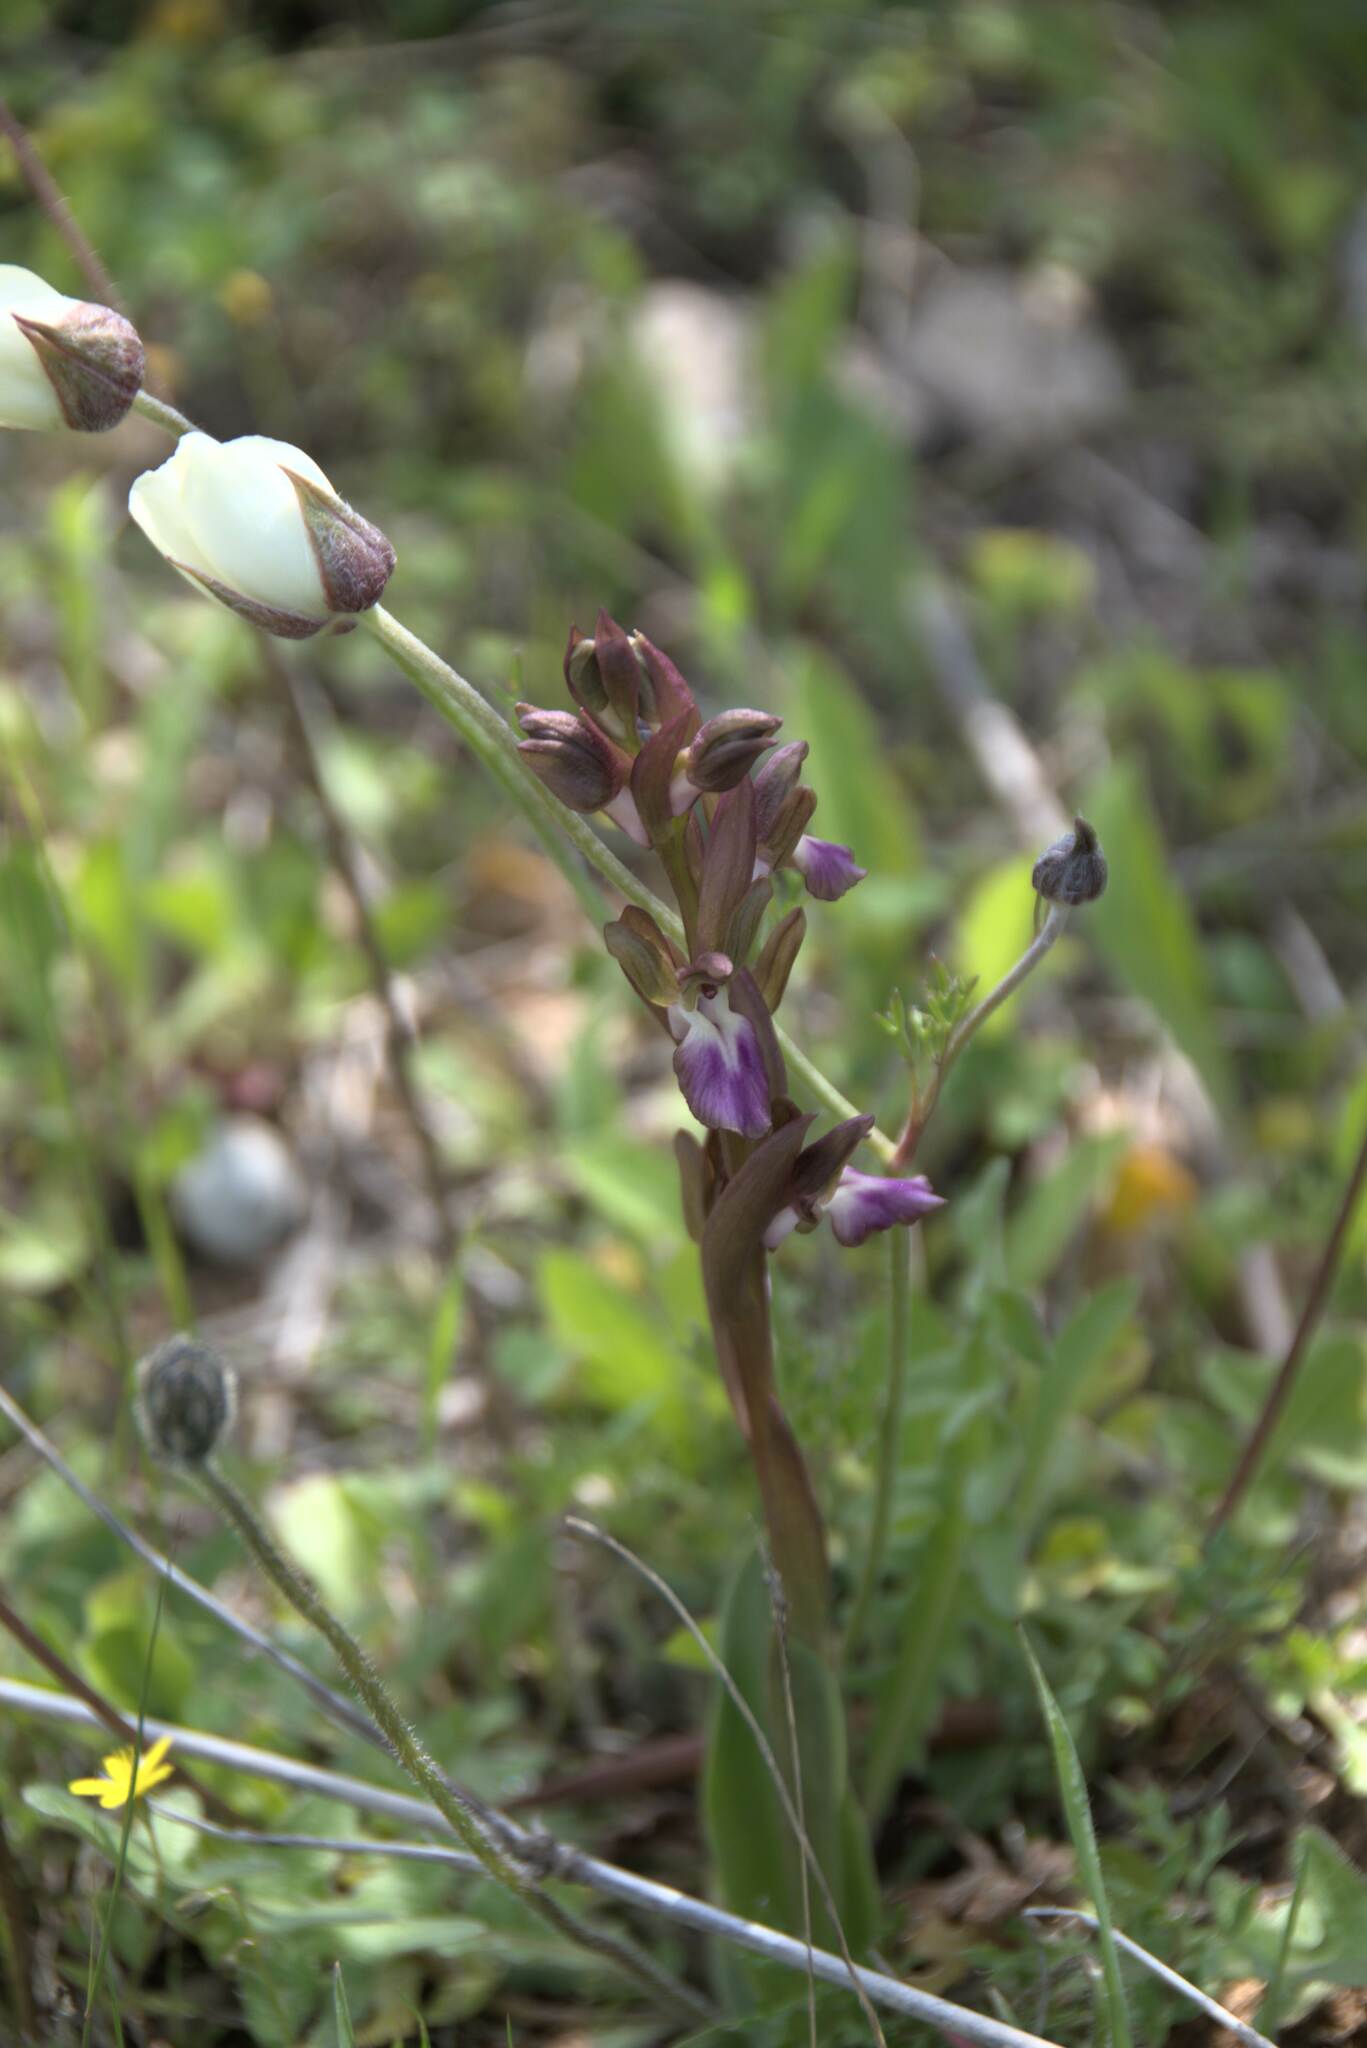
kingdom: Plantae
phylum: Tracheophyta
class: Liliopsida
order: Asparagales
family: Orchidaceae
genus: Anacamptis
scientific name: Anacamptis collina
